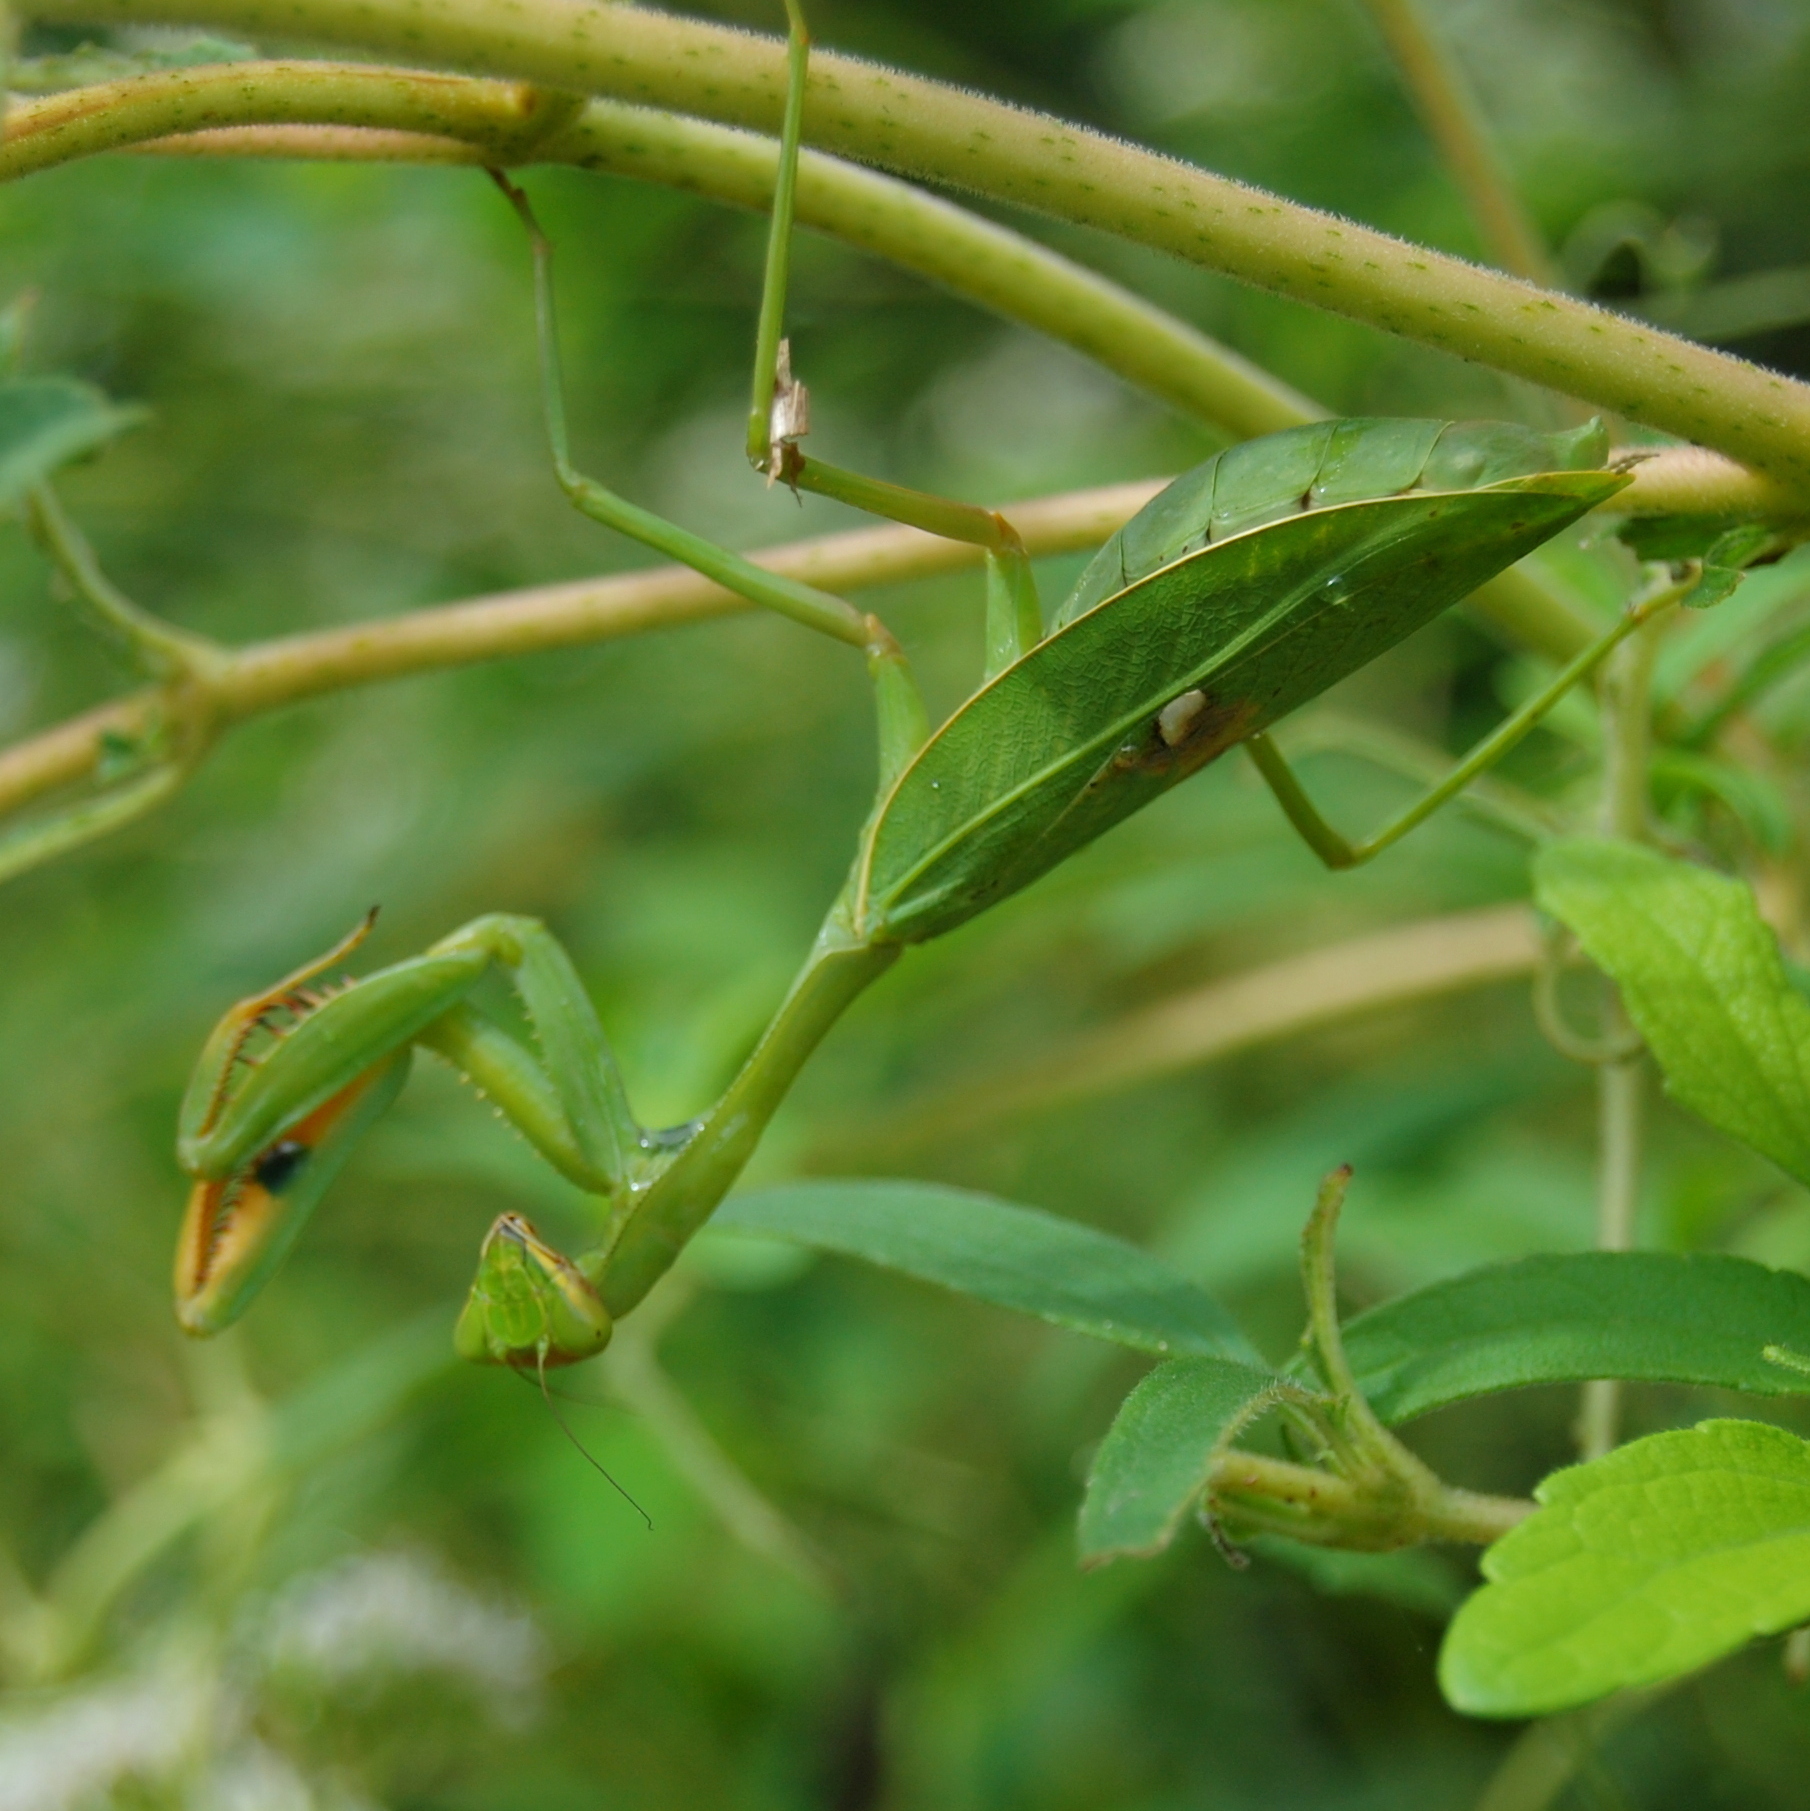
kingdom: Animalia
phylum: Arthropoda
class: Insecta
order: Mantodea
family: Mantidae
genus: Stagmatoptera
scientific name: Stagmatoptera hyaloptera
